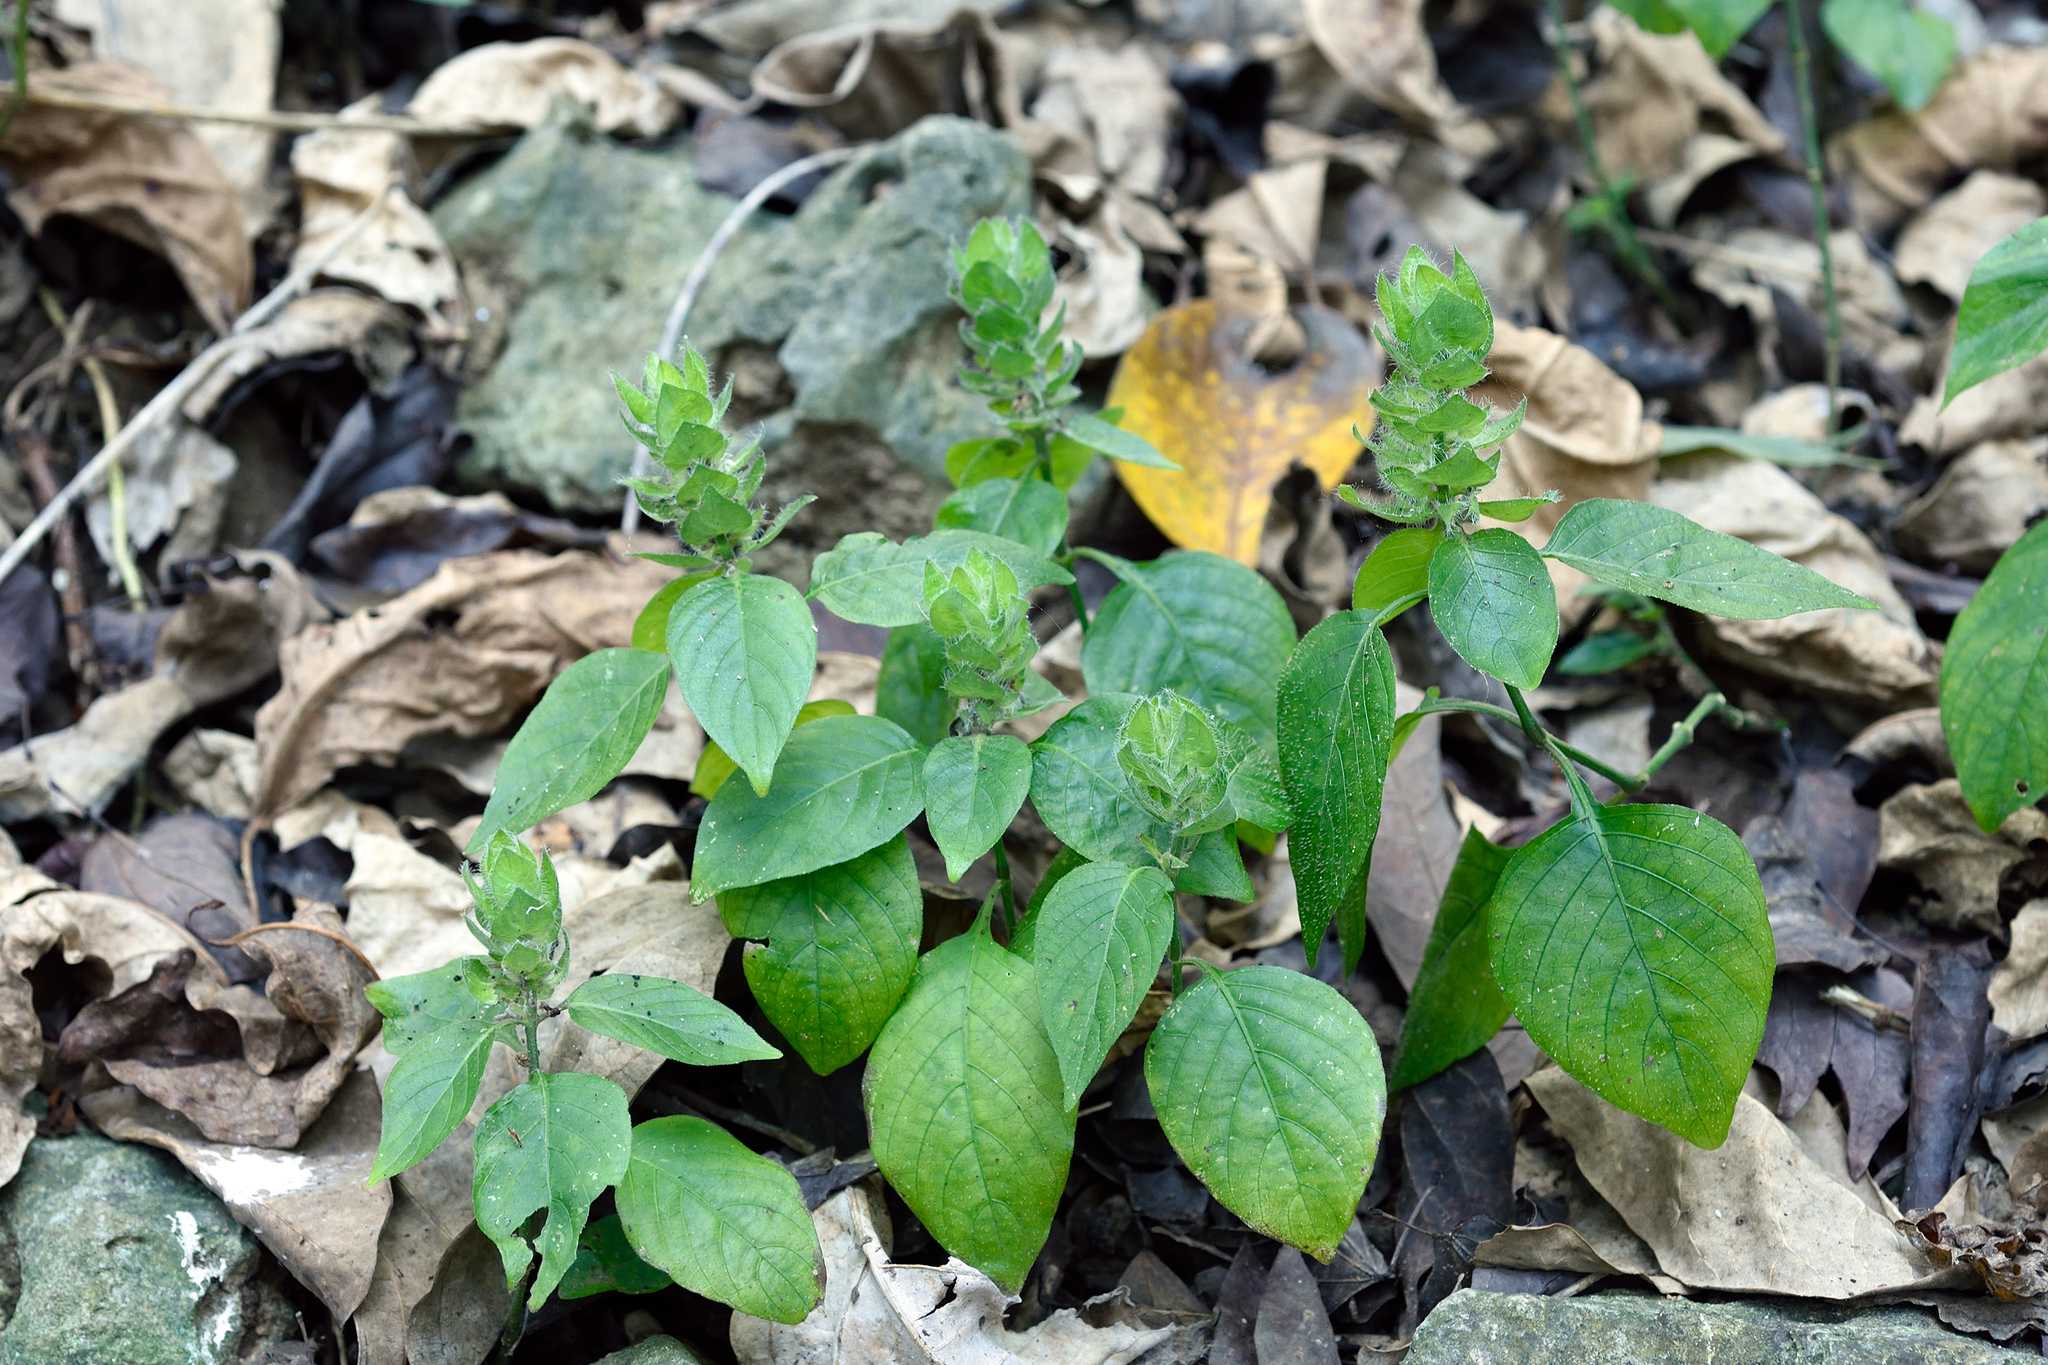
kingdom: Plantae
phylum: Tracheophyta
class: Magnoliopsida
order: Lamiales
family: Acanthaceae
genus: Ruellia
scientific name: Ruellia blechum
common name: Browne's blechum
